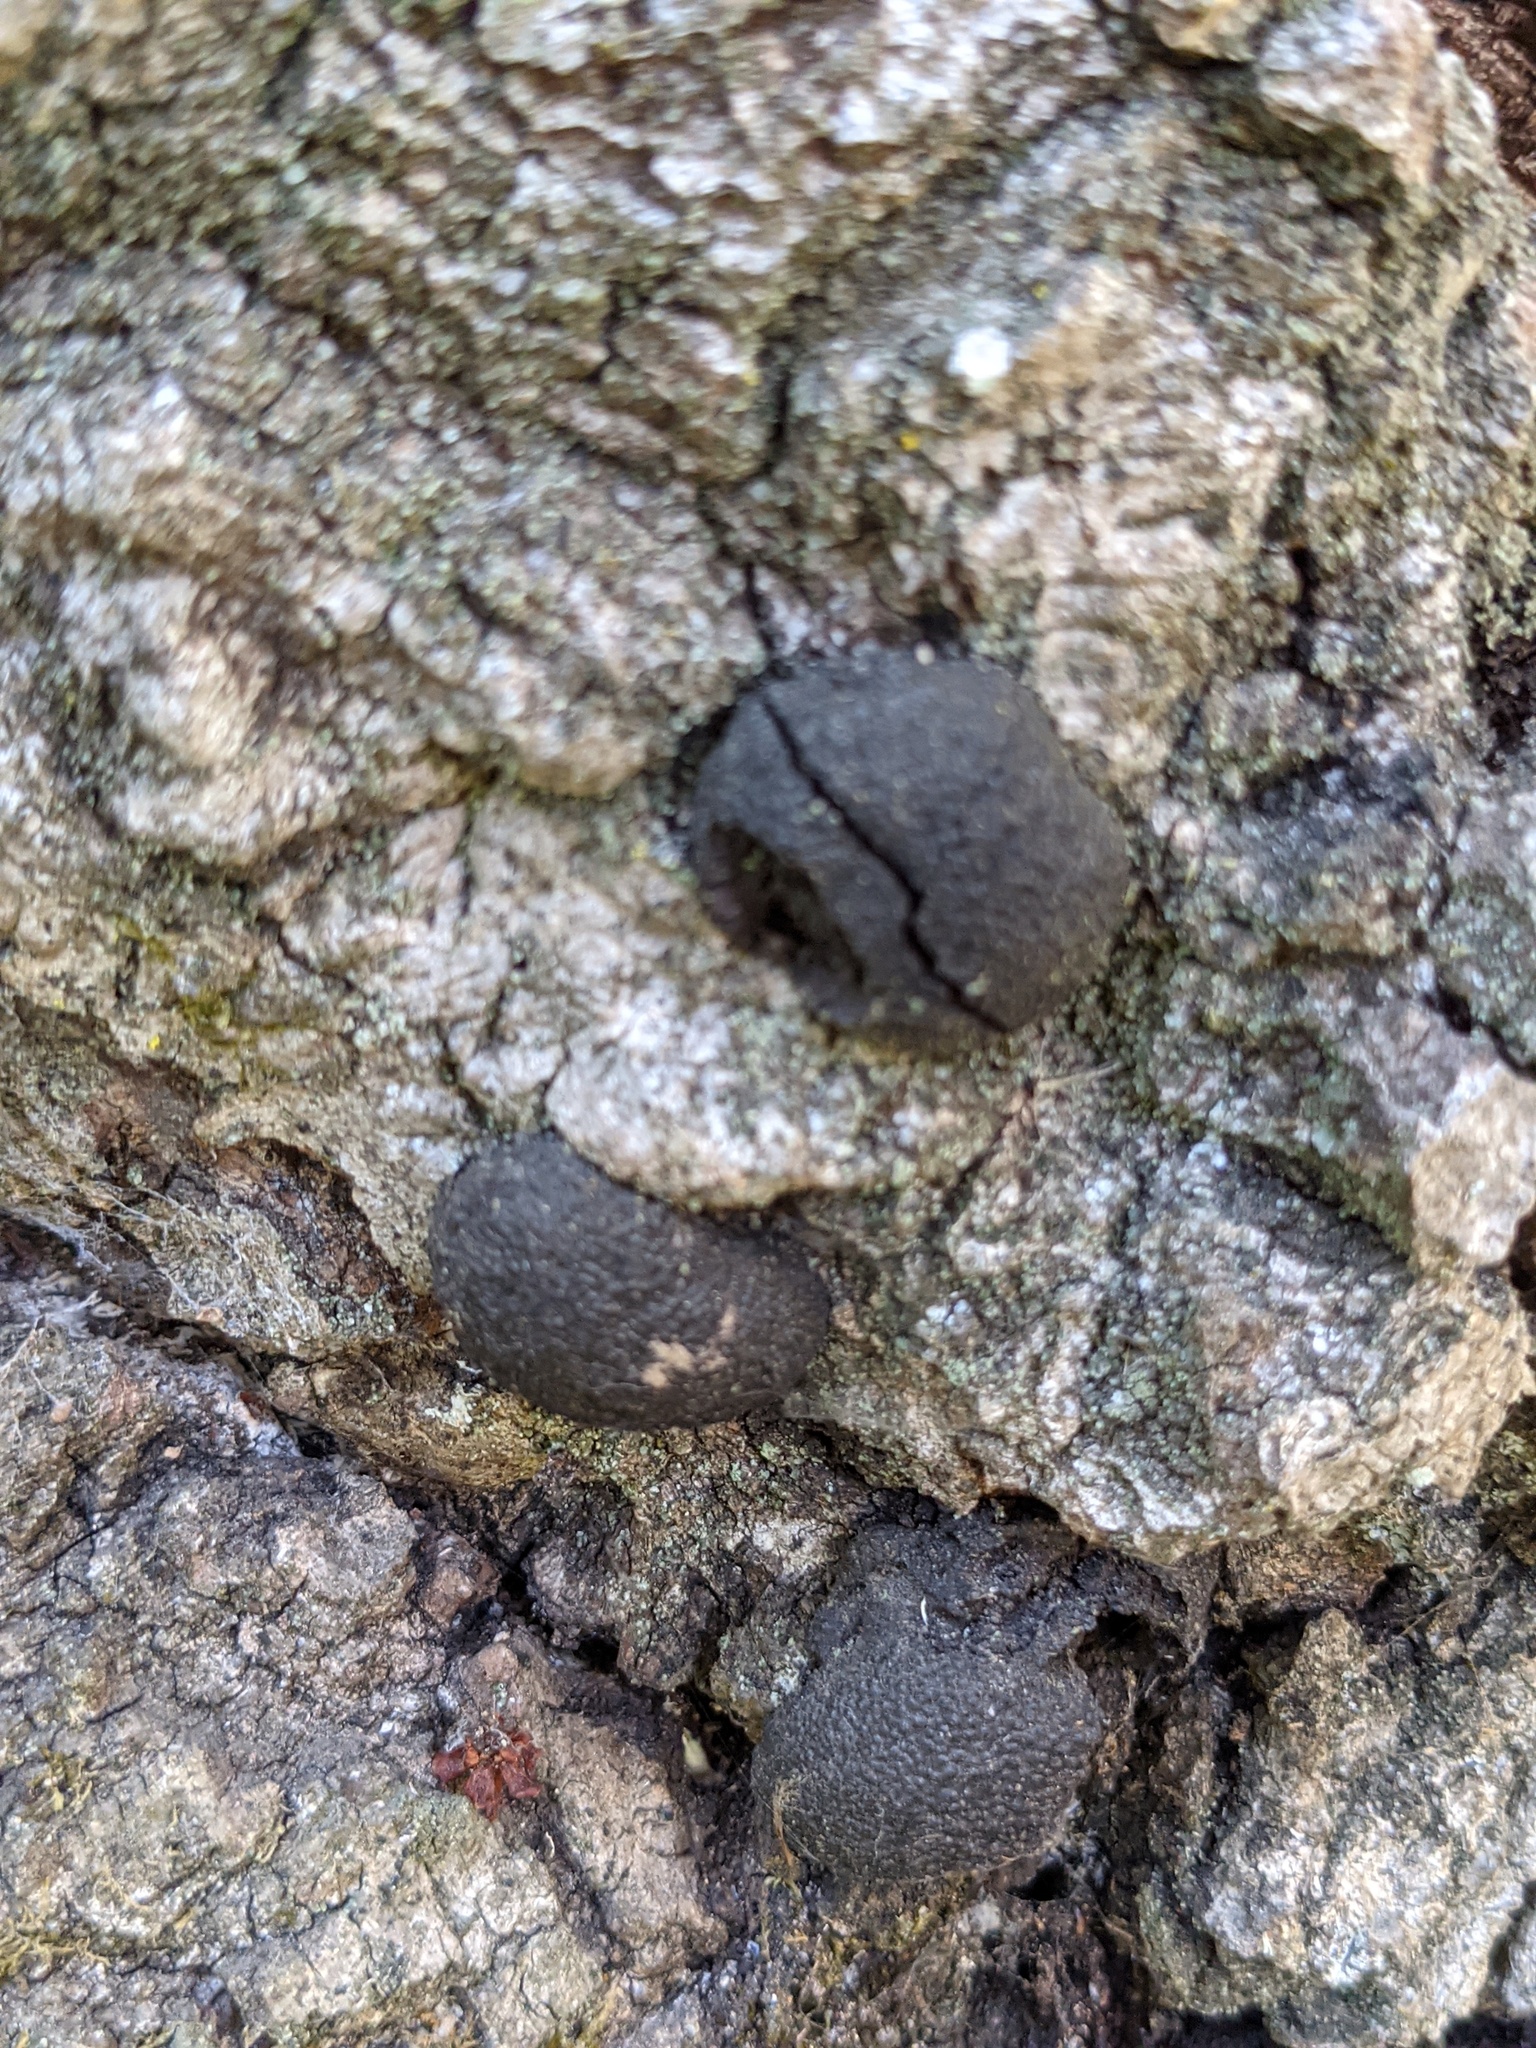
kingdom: Fungi
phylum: Ascomycota
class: Sordariomycetes
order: Xylariales
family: Hypoxylaceae
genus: Annulohypoxylon
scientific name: Annulohypoxylon thouarsianum
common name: Cramp balls
